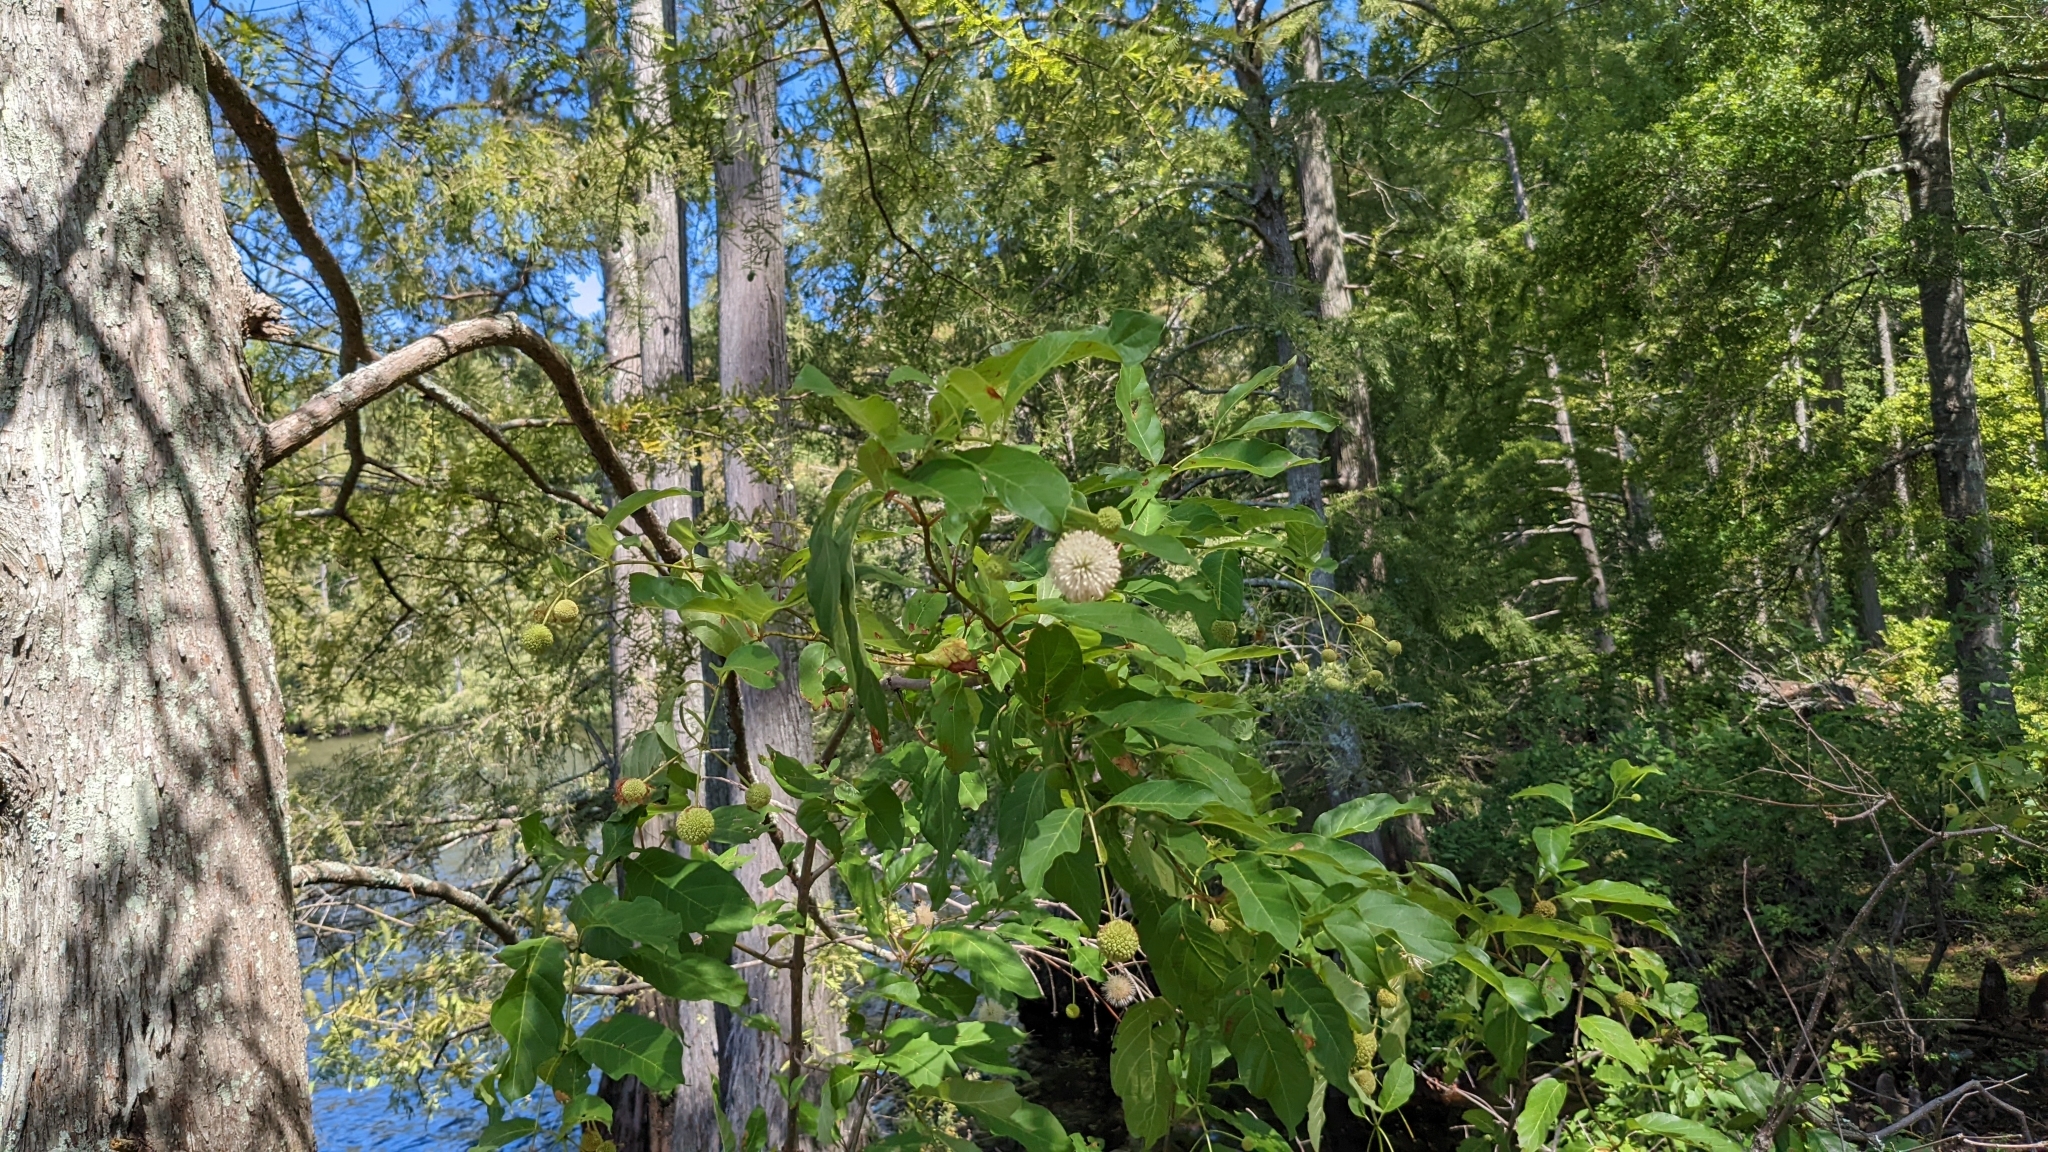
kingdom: Plantae
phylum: Tracheophyta
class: Magnoliopsida
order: Gentianales
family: Rubiaceae
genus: Cephalanthus
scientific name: Cephalanthus occidentalis
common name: Button-willow
